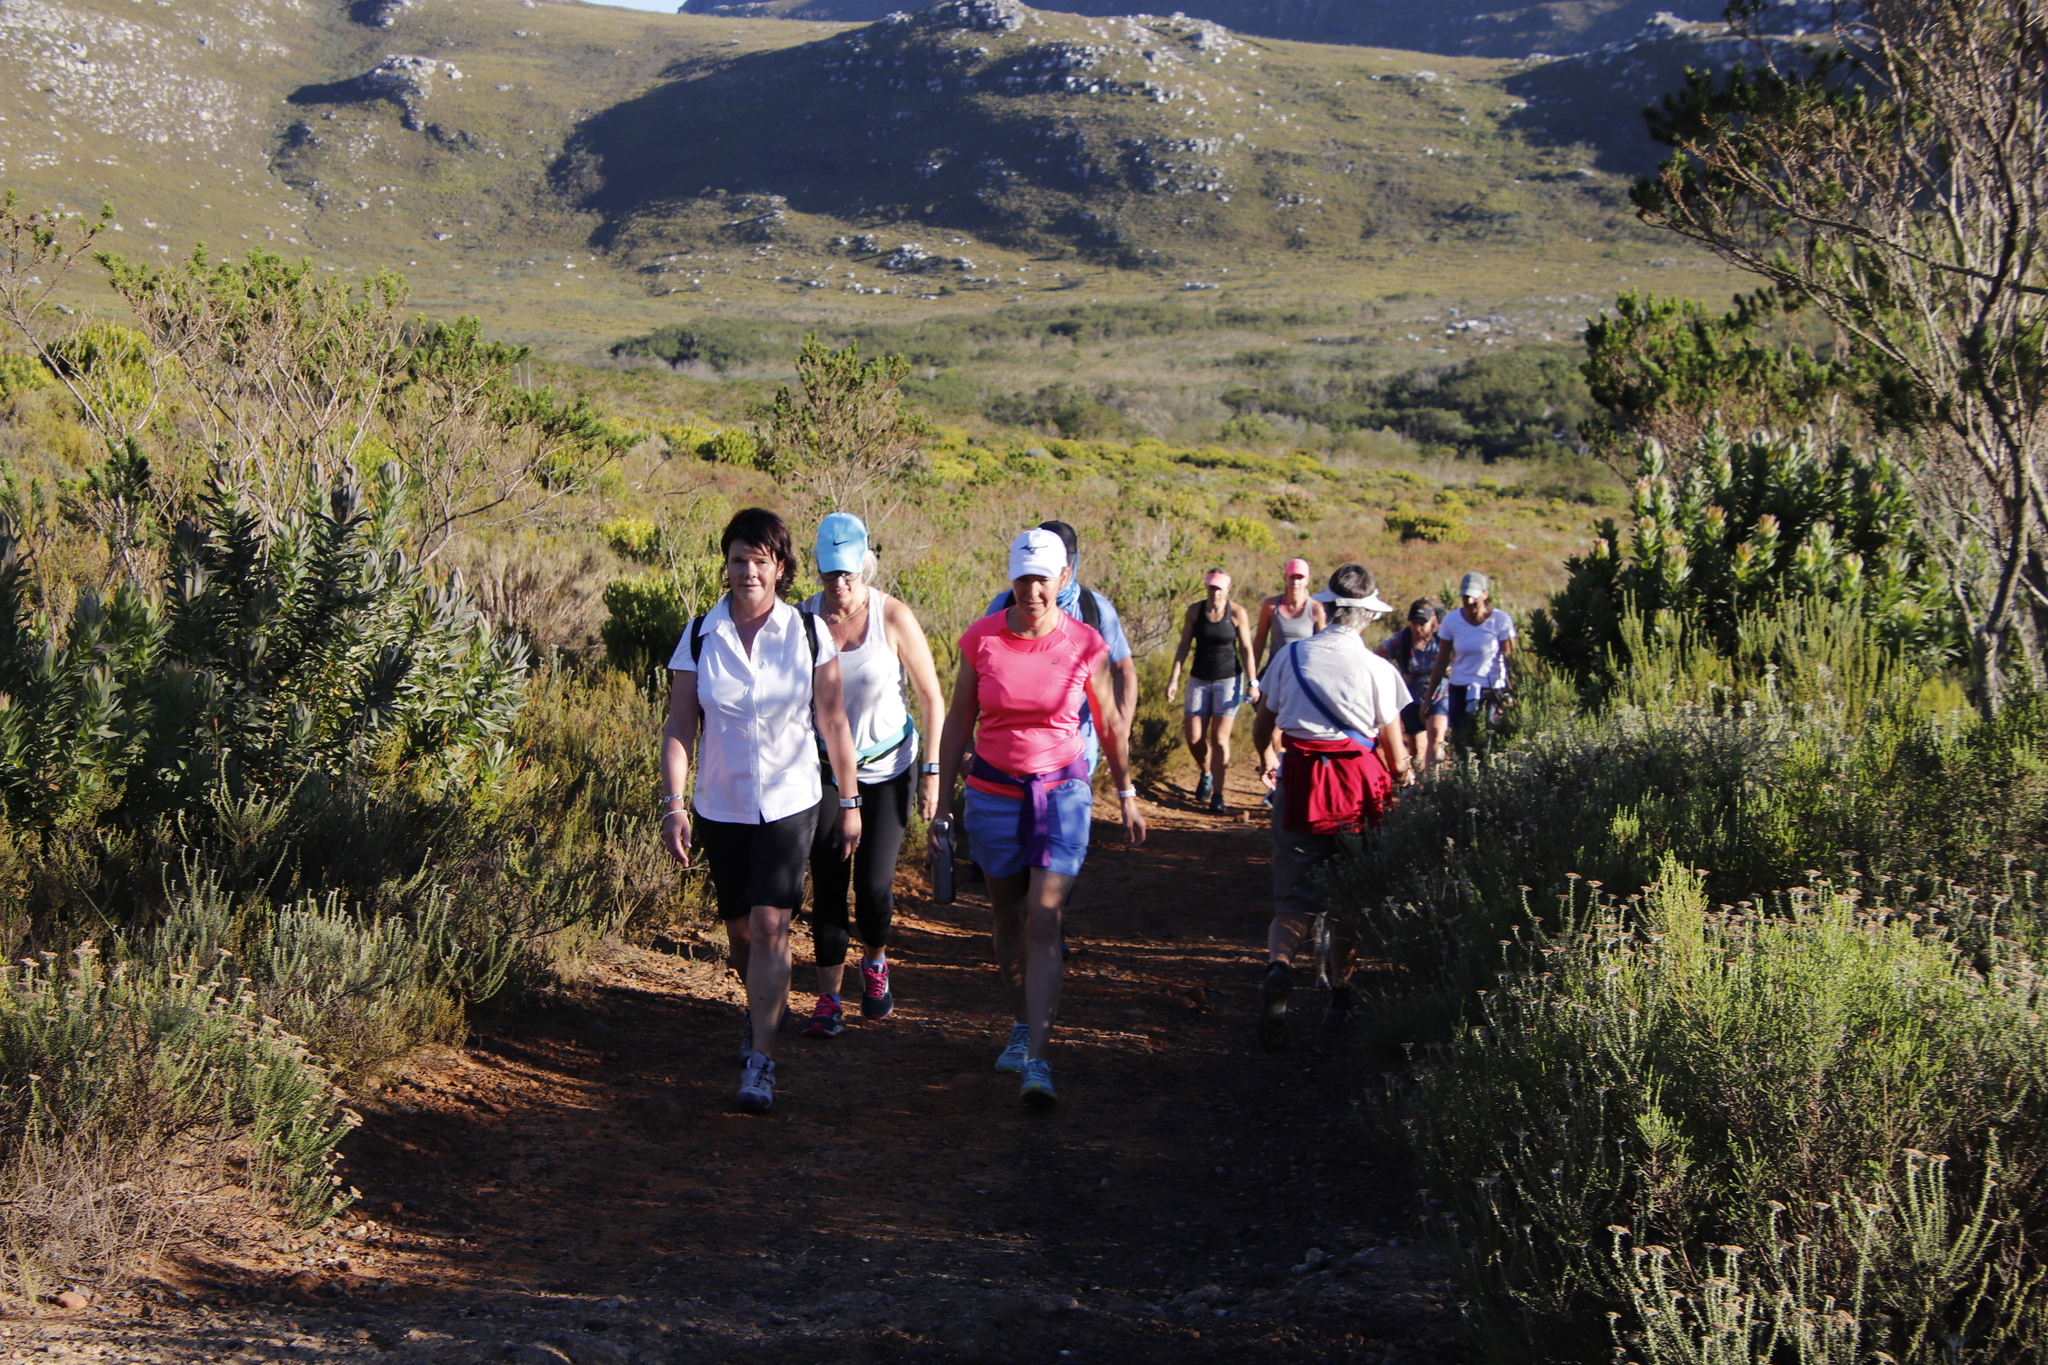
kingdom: Plantae
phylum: Tracheophyta
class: Magnoliopsida
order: Proteales
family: Proteaceae
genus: Protea
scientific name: Protea coronata
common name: Green sugarbush
